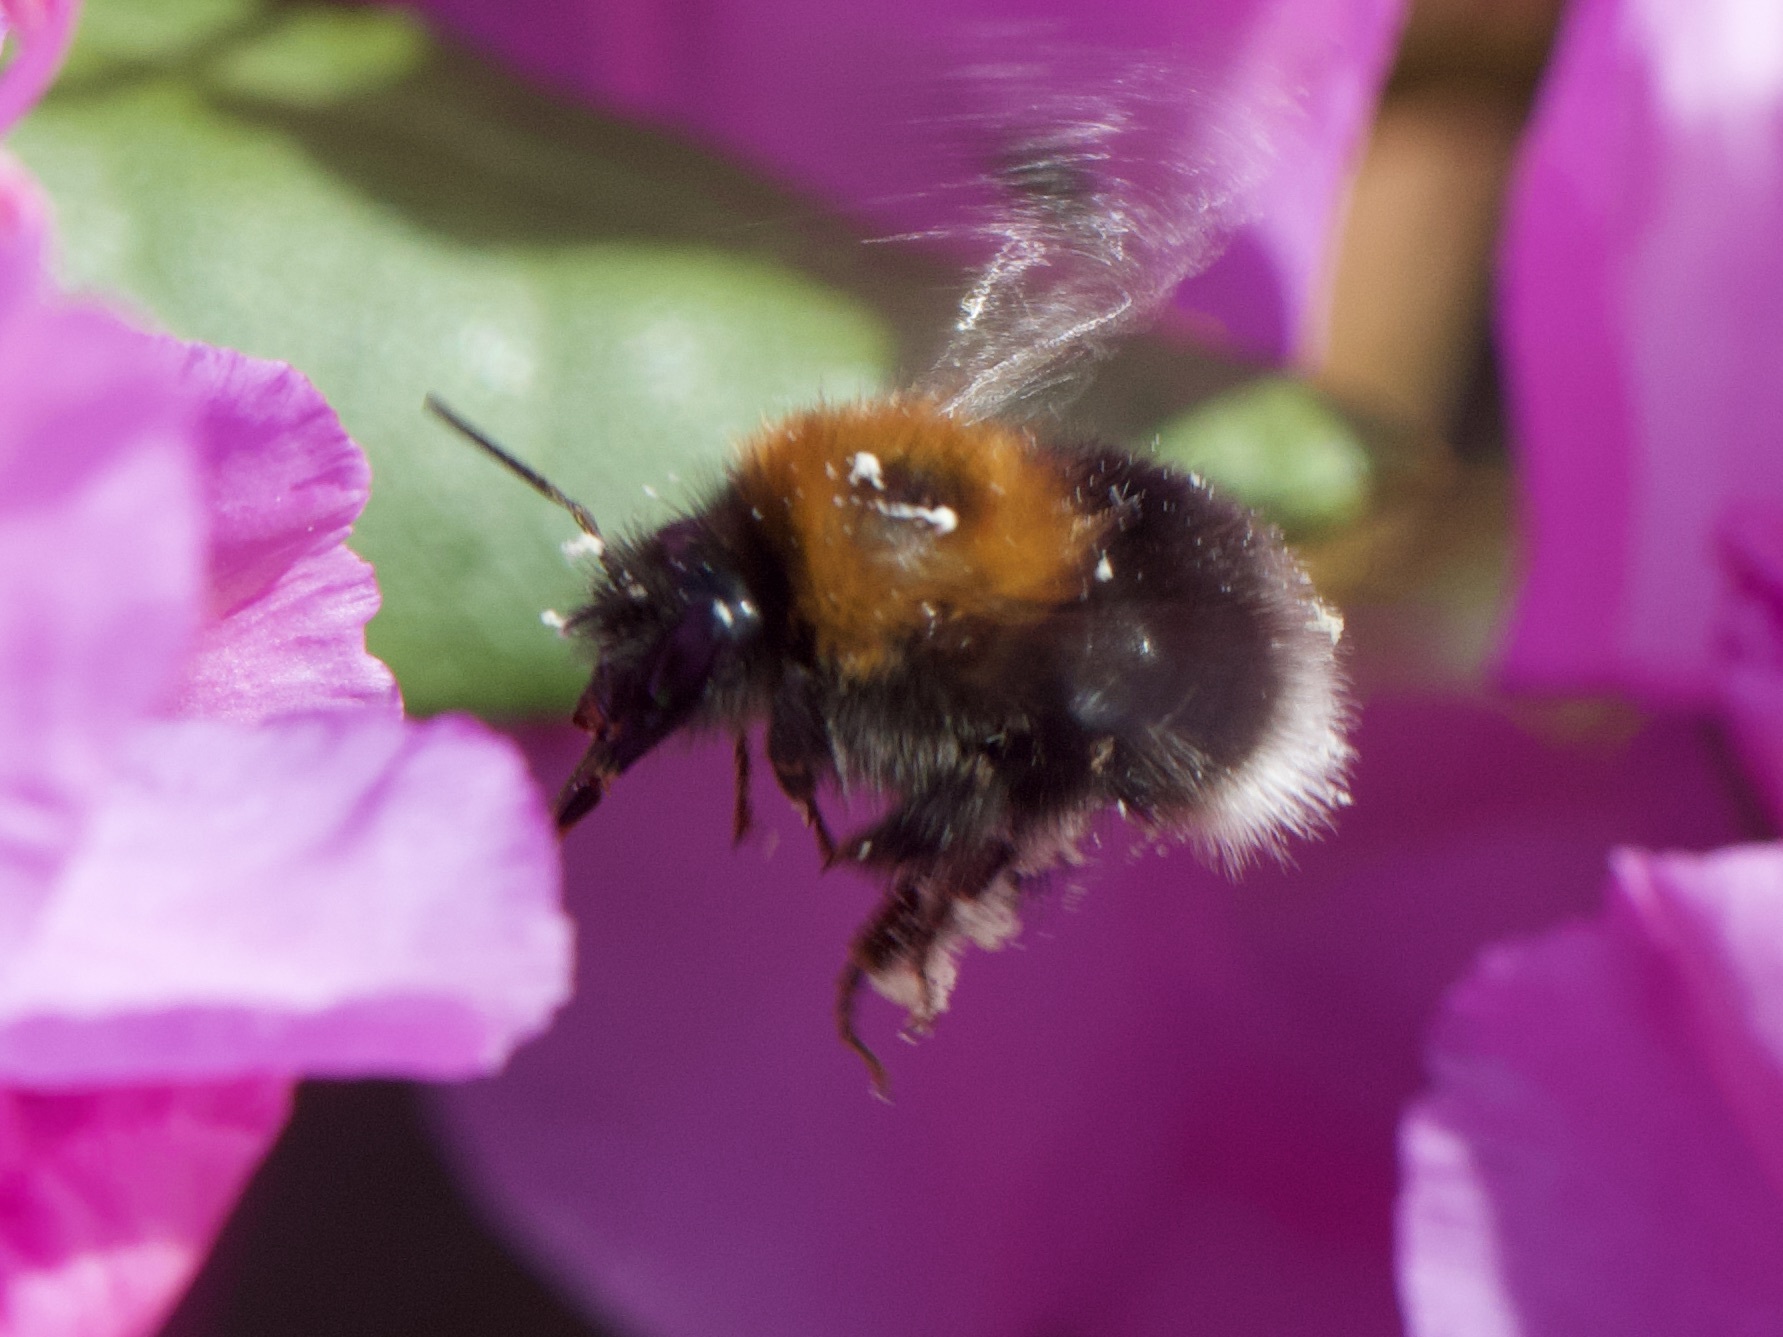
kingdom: Animalia
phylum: Arthropoda
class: Insecta
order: Hymenoptera
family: Apidae
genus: Bombus
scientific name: Bombus hypnorum
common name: New garden bumblebee
